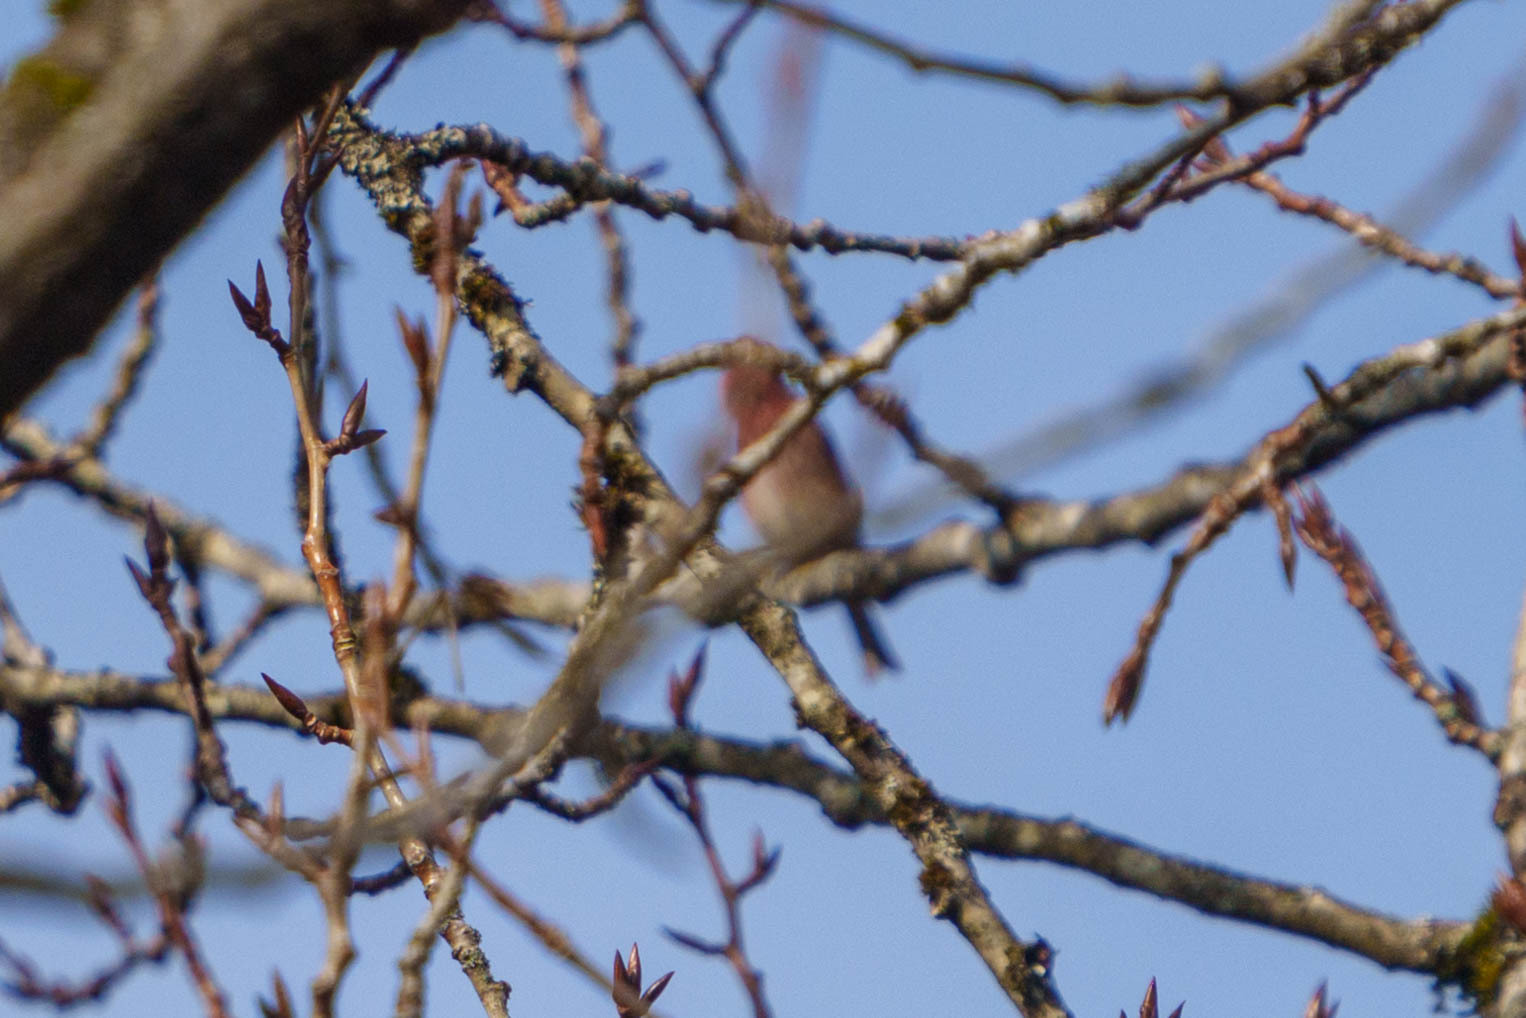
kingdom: Animalia
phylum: Chordata
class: Aves
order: Passeriformes
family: Fringillidae
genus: Haemorhous
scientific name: Haemorhous purpureus
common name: Purple finch
